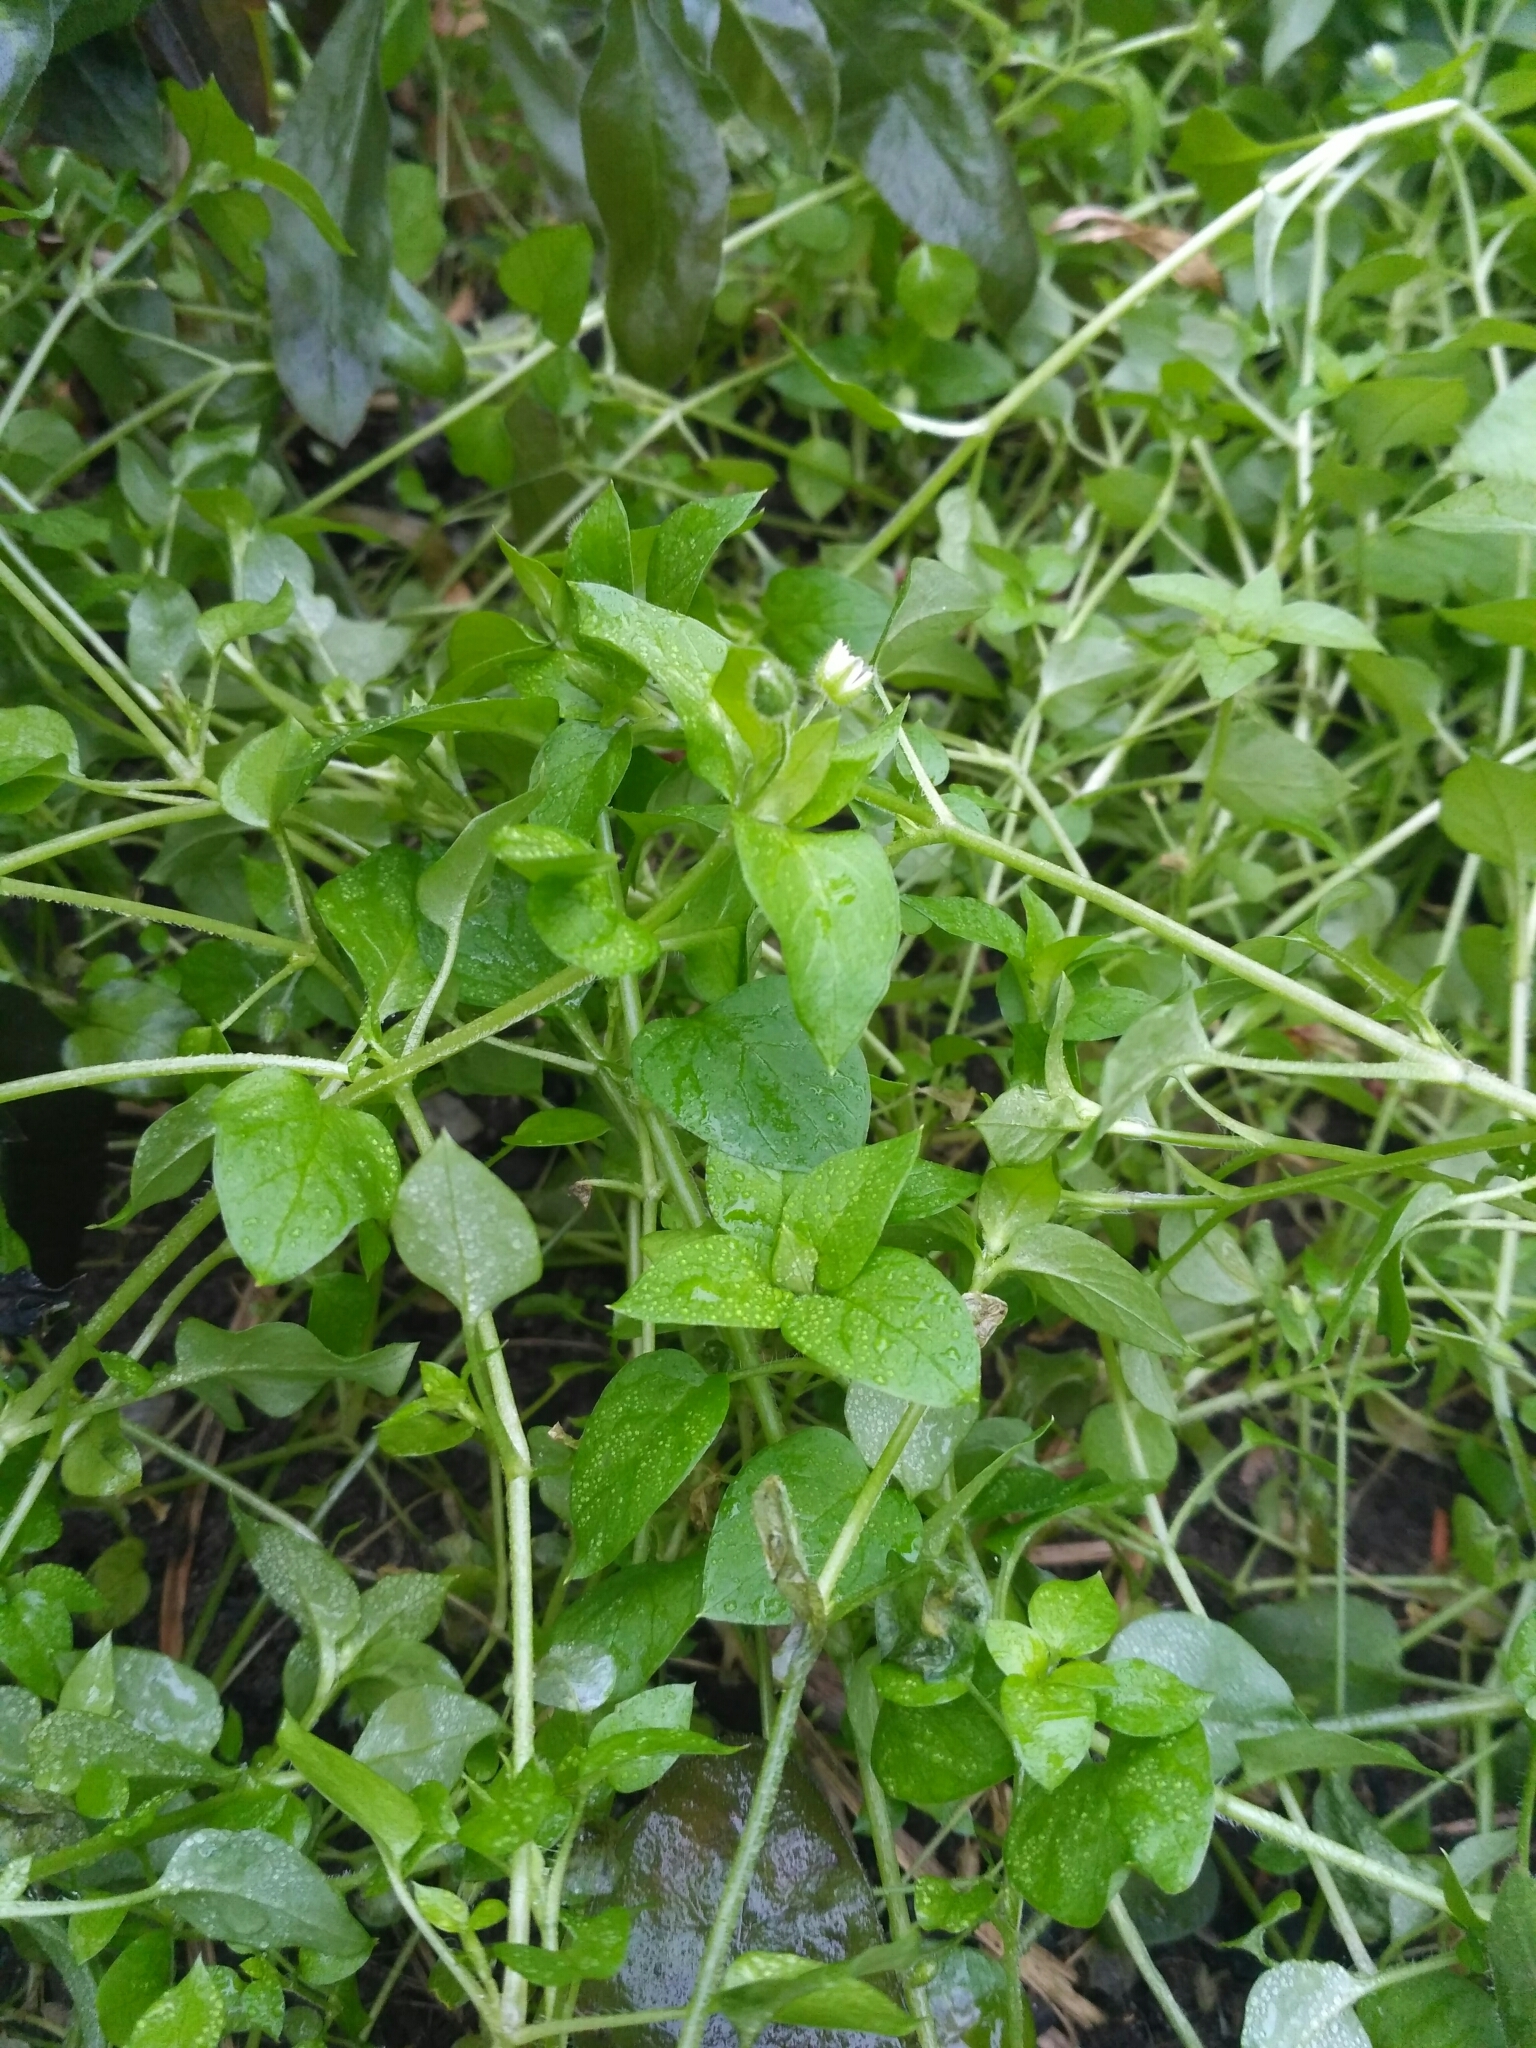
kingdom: Plantae
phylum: Tracheophyta
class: Magnoliopsida
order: Caryophyllales
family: Caryophyllaceae
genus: Stellaria
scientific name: Stellaria media
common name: Common chickweed
